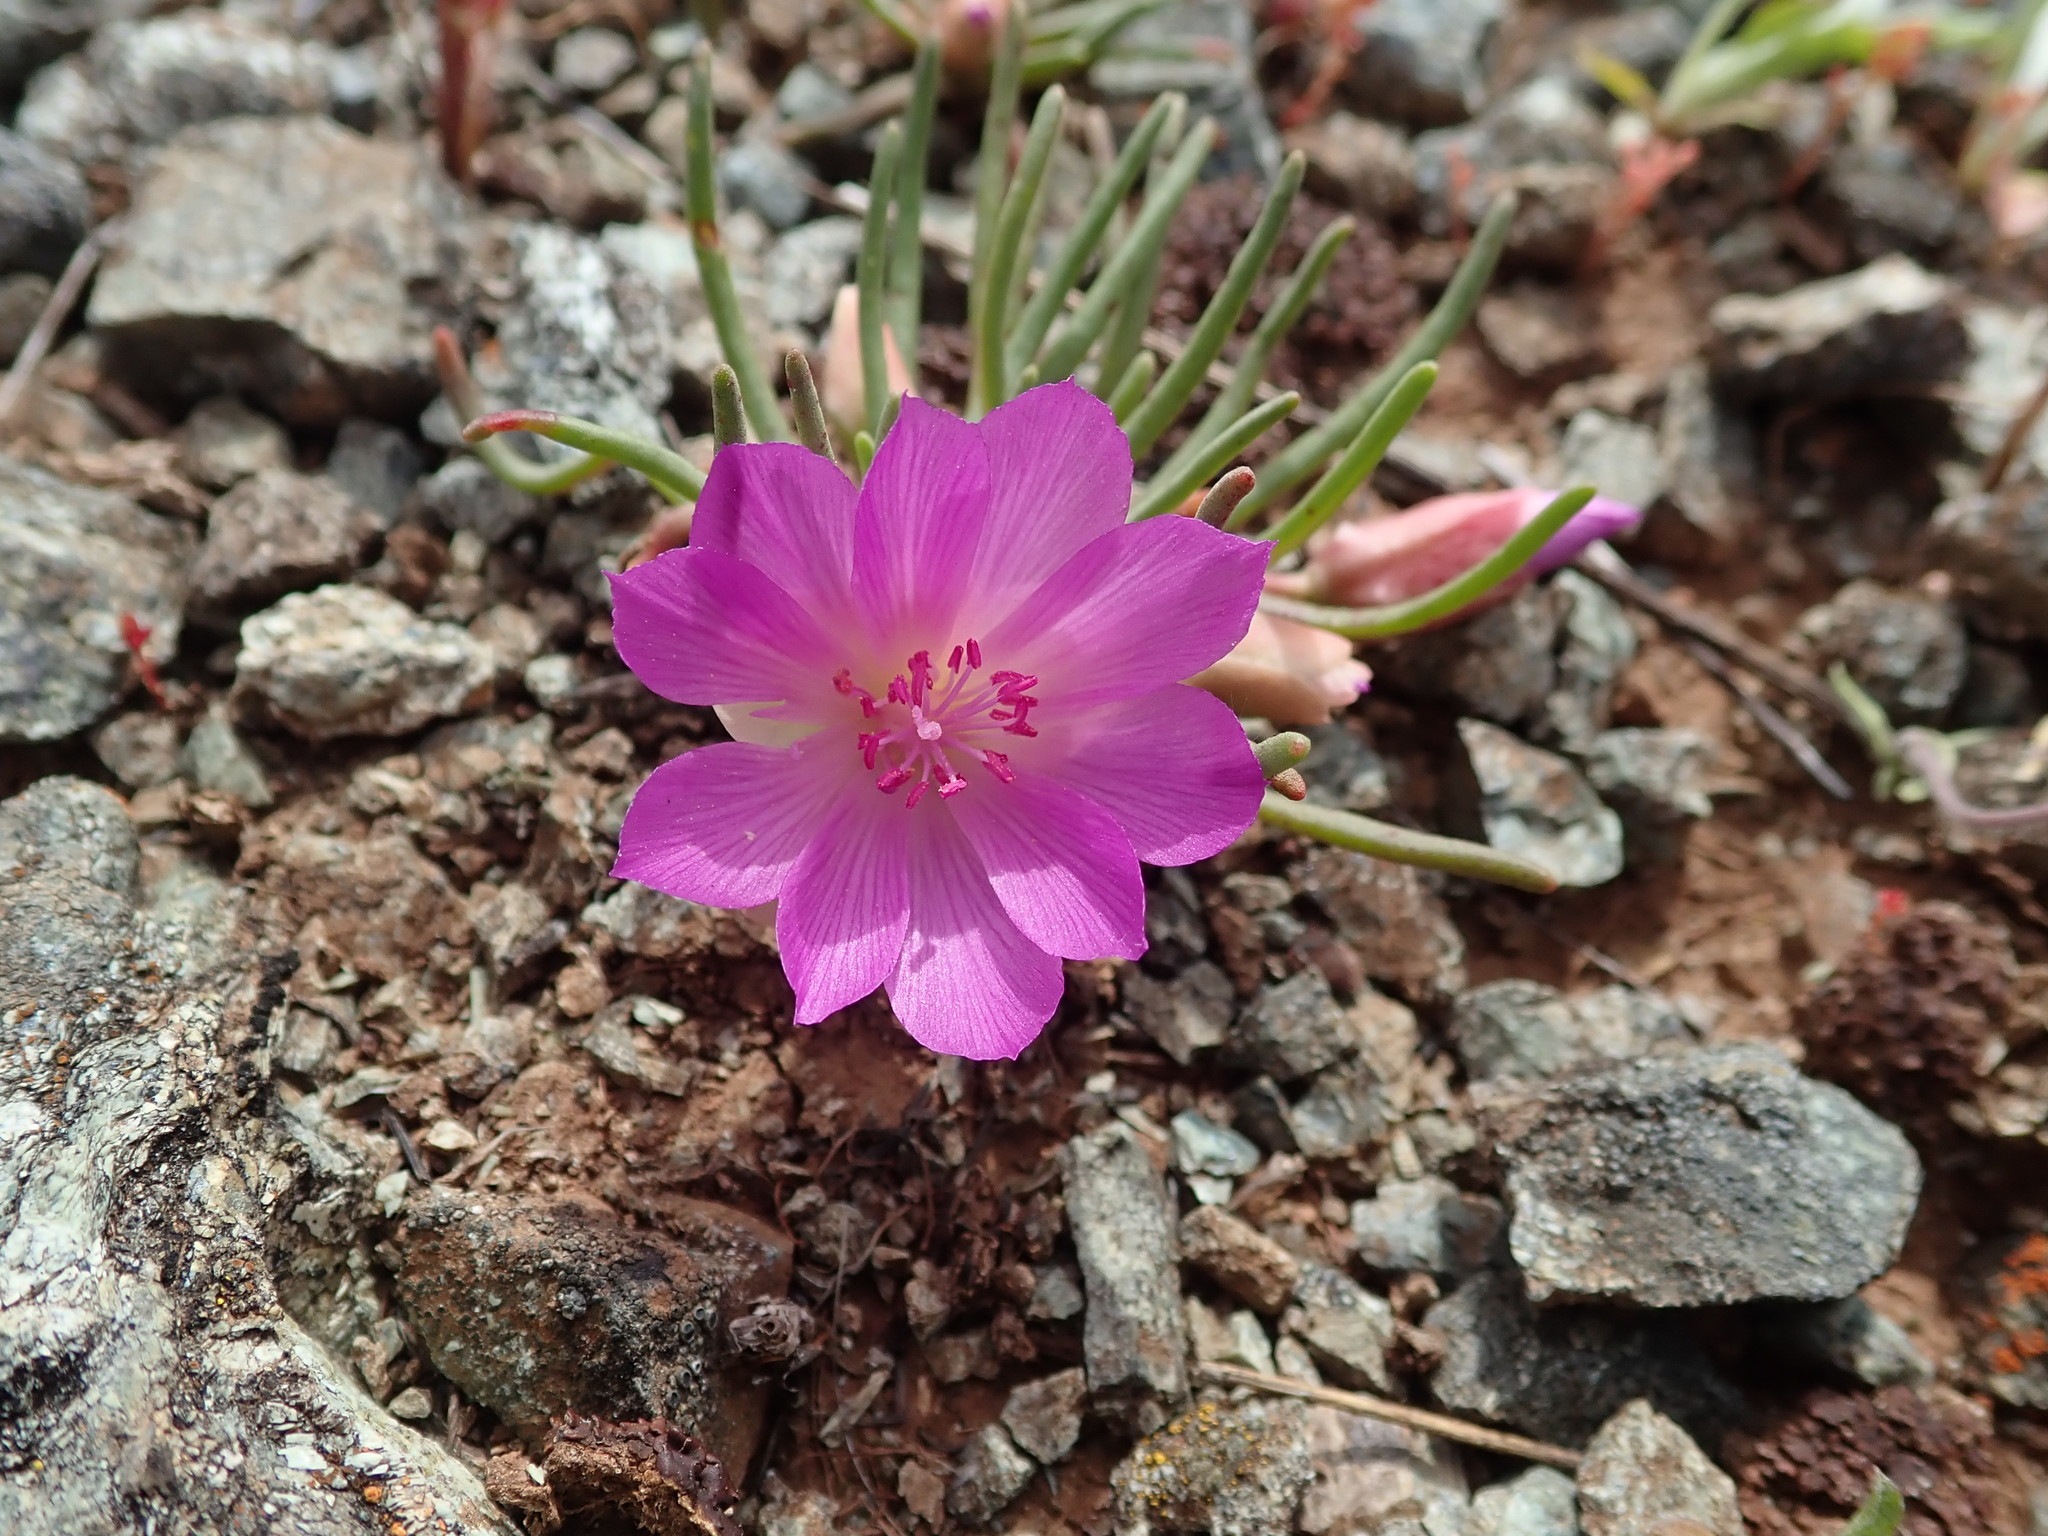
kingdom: Plantae
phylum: Tracheophyta
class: Magnoliopsida
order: Caryophyllales
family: Montiaceae
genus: Lewisia
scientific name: Lewisia rediviva
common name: Bitter-root
